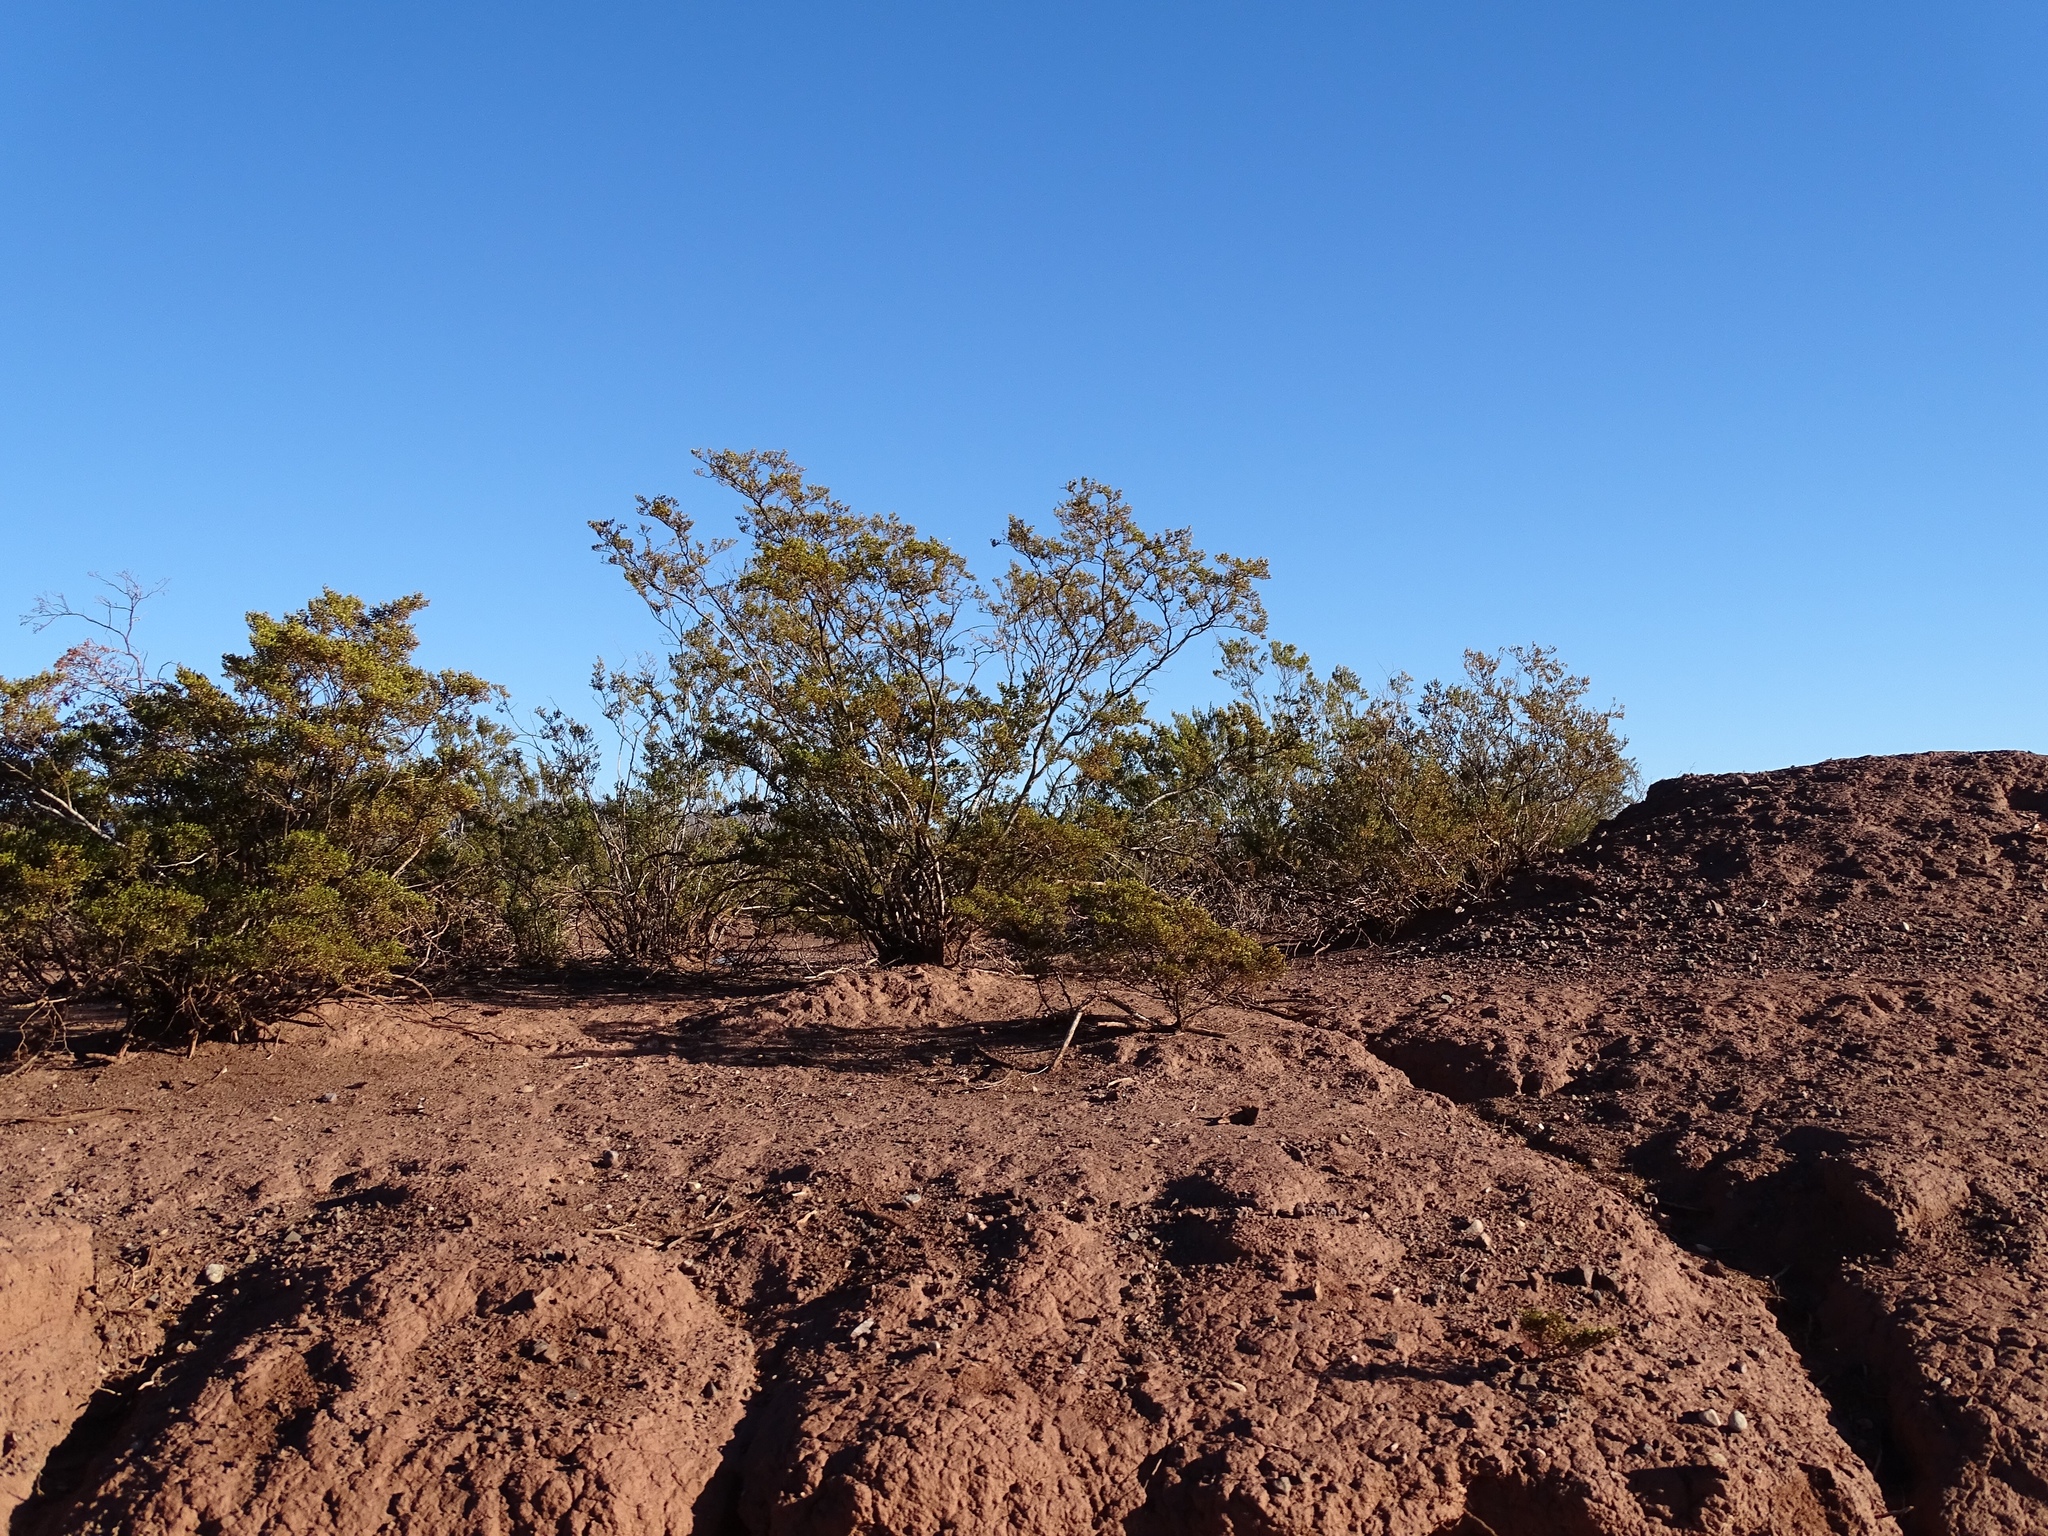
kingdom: Plantae
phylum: Tracheophyta
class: Magnoliopsida
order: Zygophyllales
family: Zygophyllaceae
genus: Larrea
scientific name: Larrea tridentata
